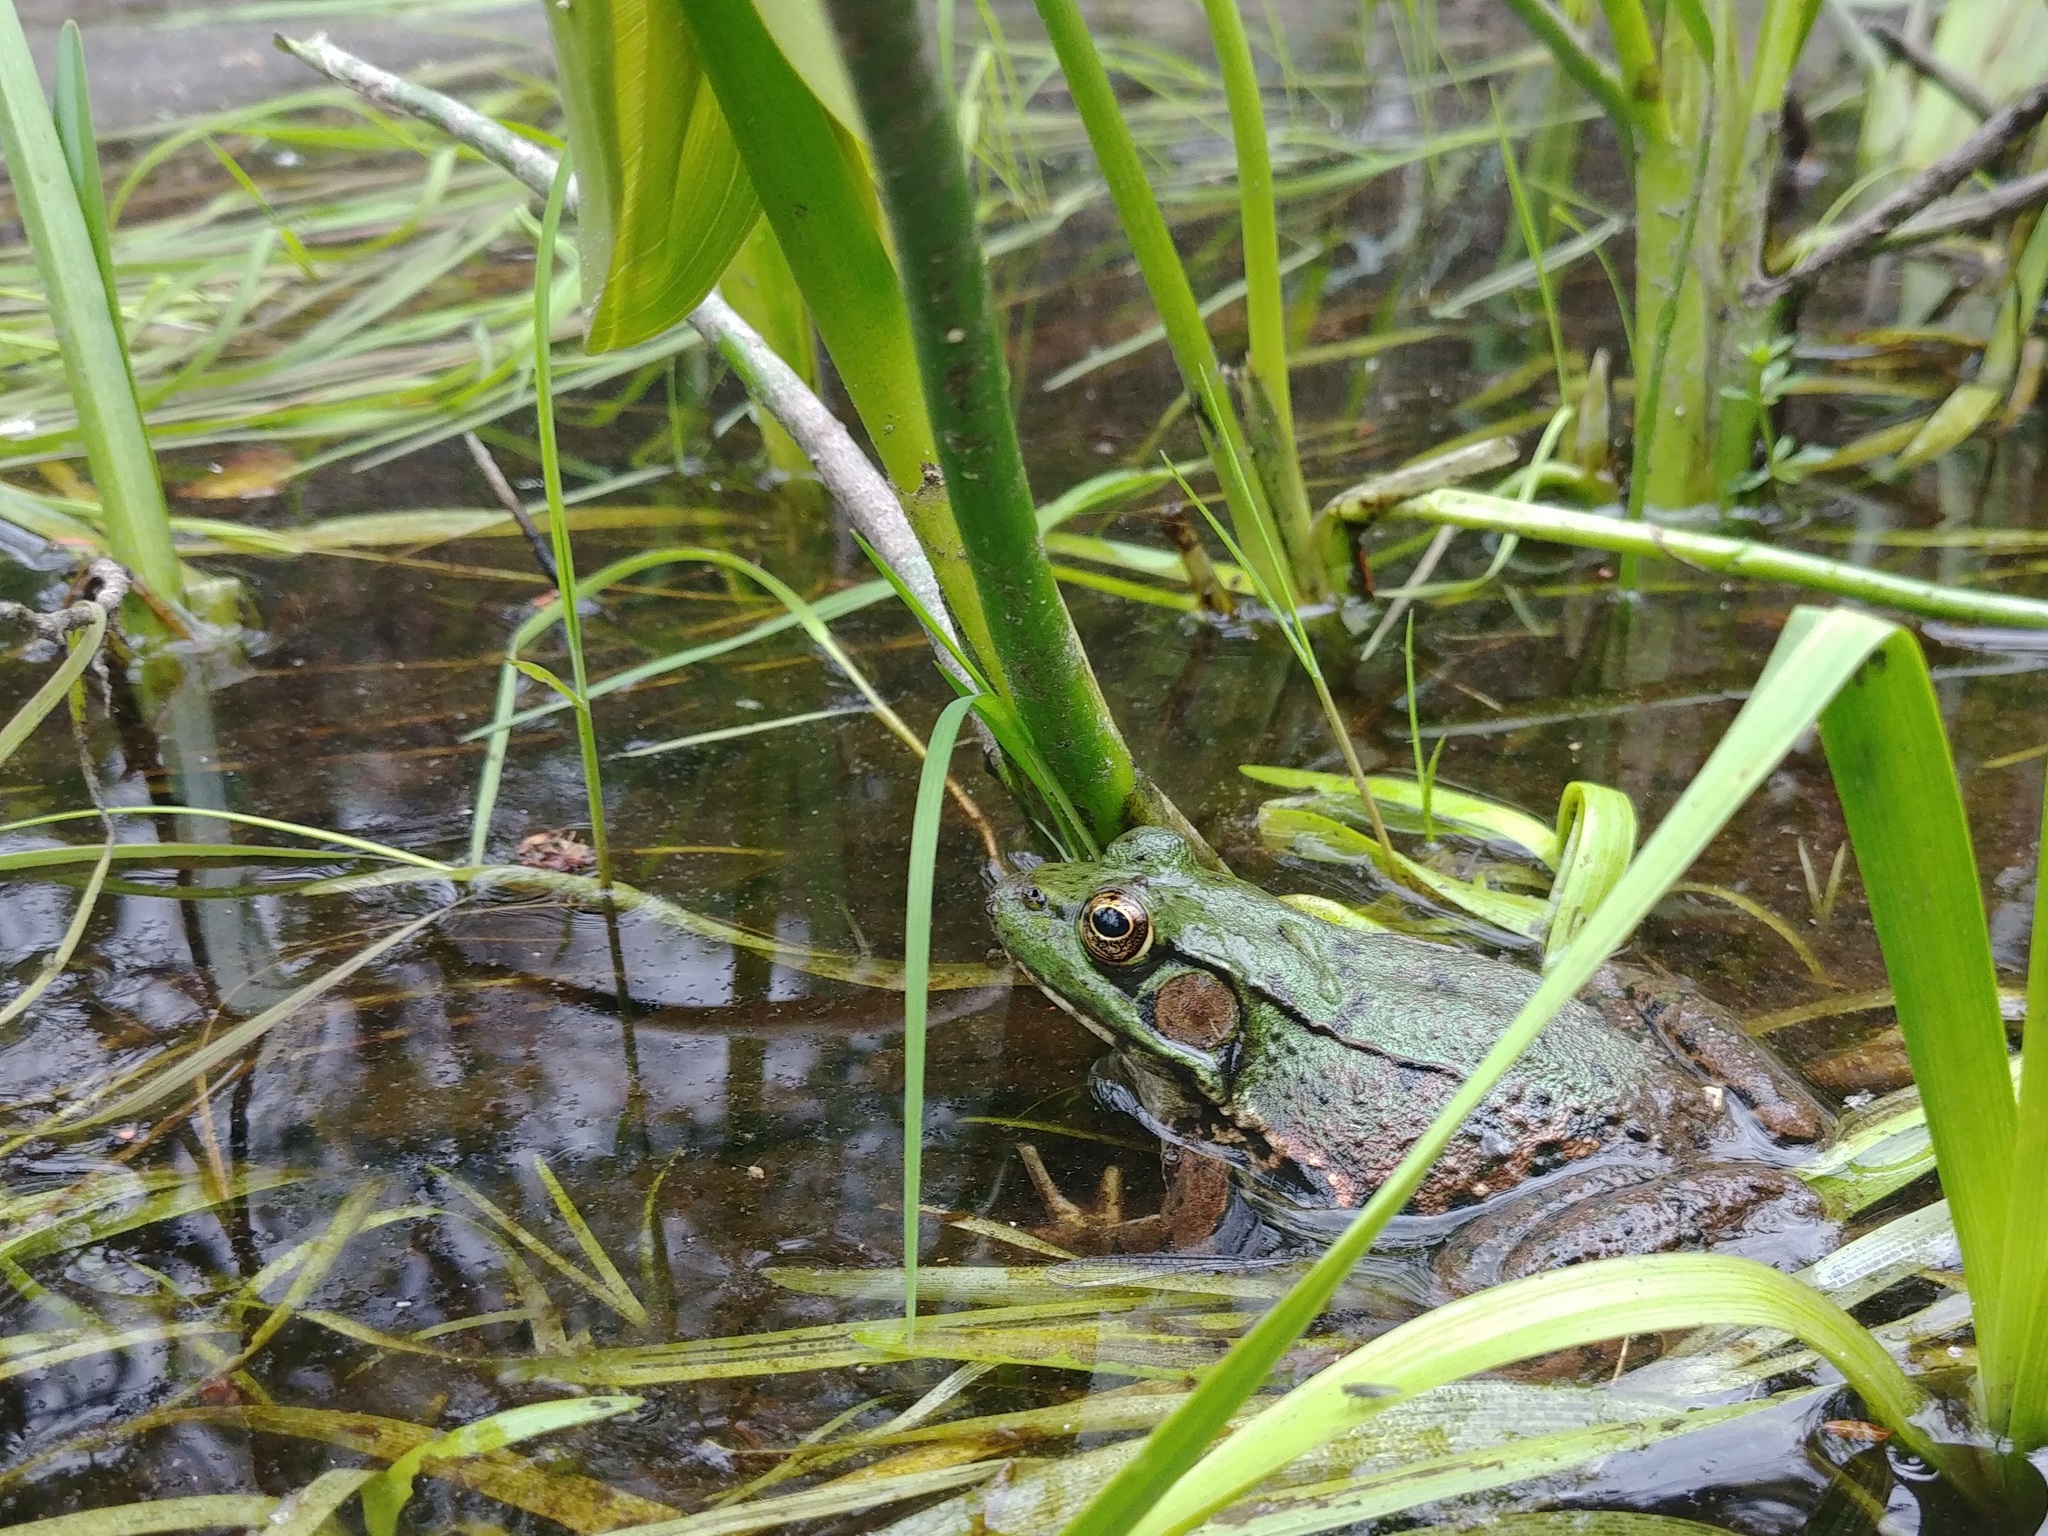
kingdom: Animalia
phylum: Chordata
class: Amphibia
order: Anura
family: Ranidae
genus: Lithobates
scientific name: Lithobates clamitans
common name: Green frog
